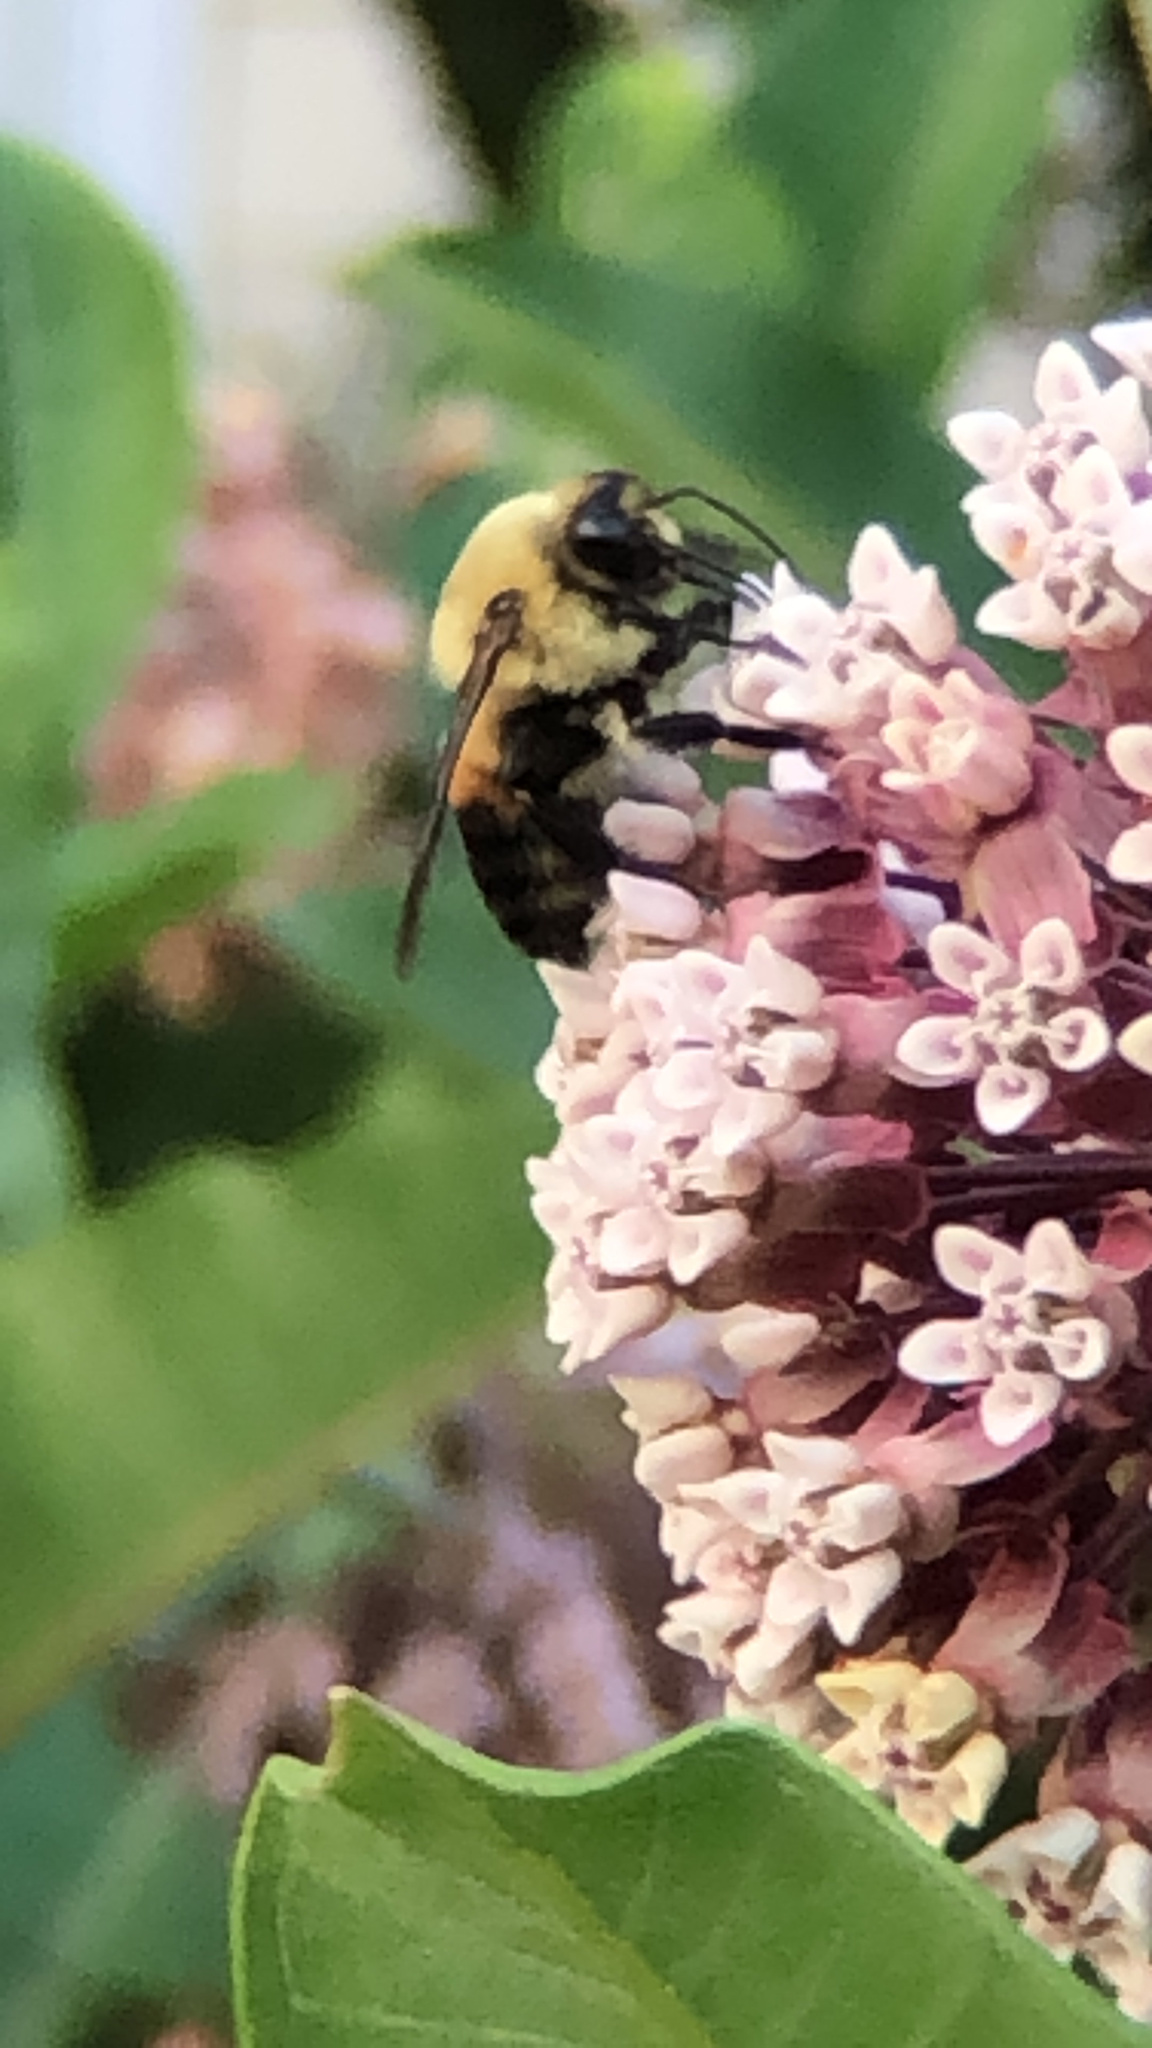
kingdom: Animalia
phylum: Arthropoda
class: Insecta
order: Hymenoptera
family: Apidae
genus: Bombus
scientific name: Bombus griseocollis
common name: Brown-belted bumble bee
